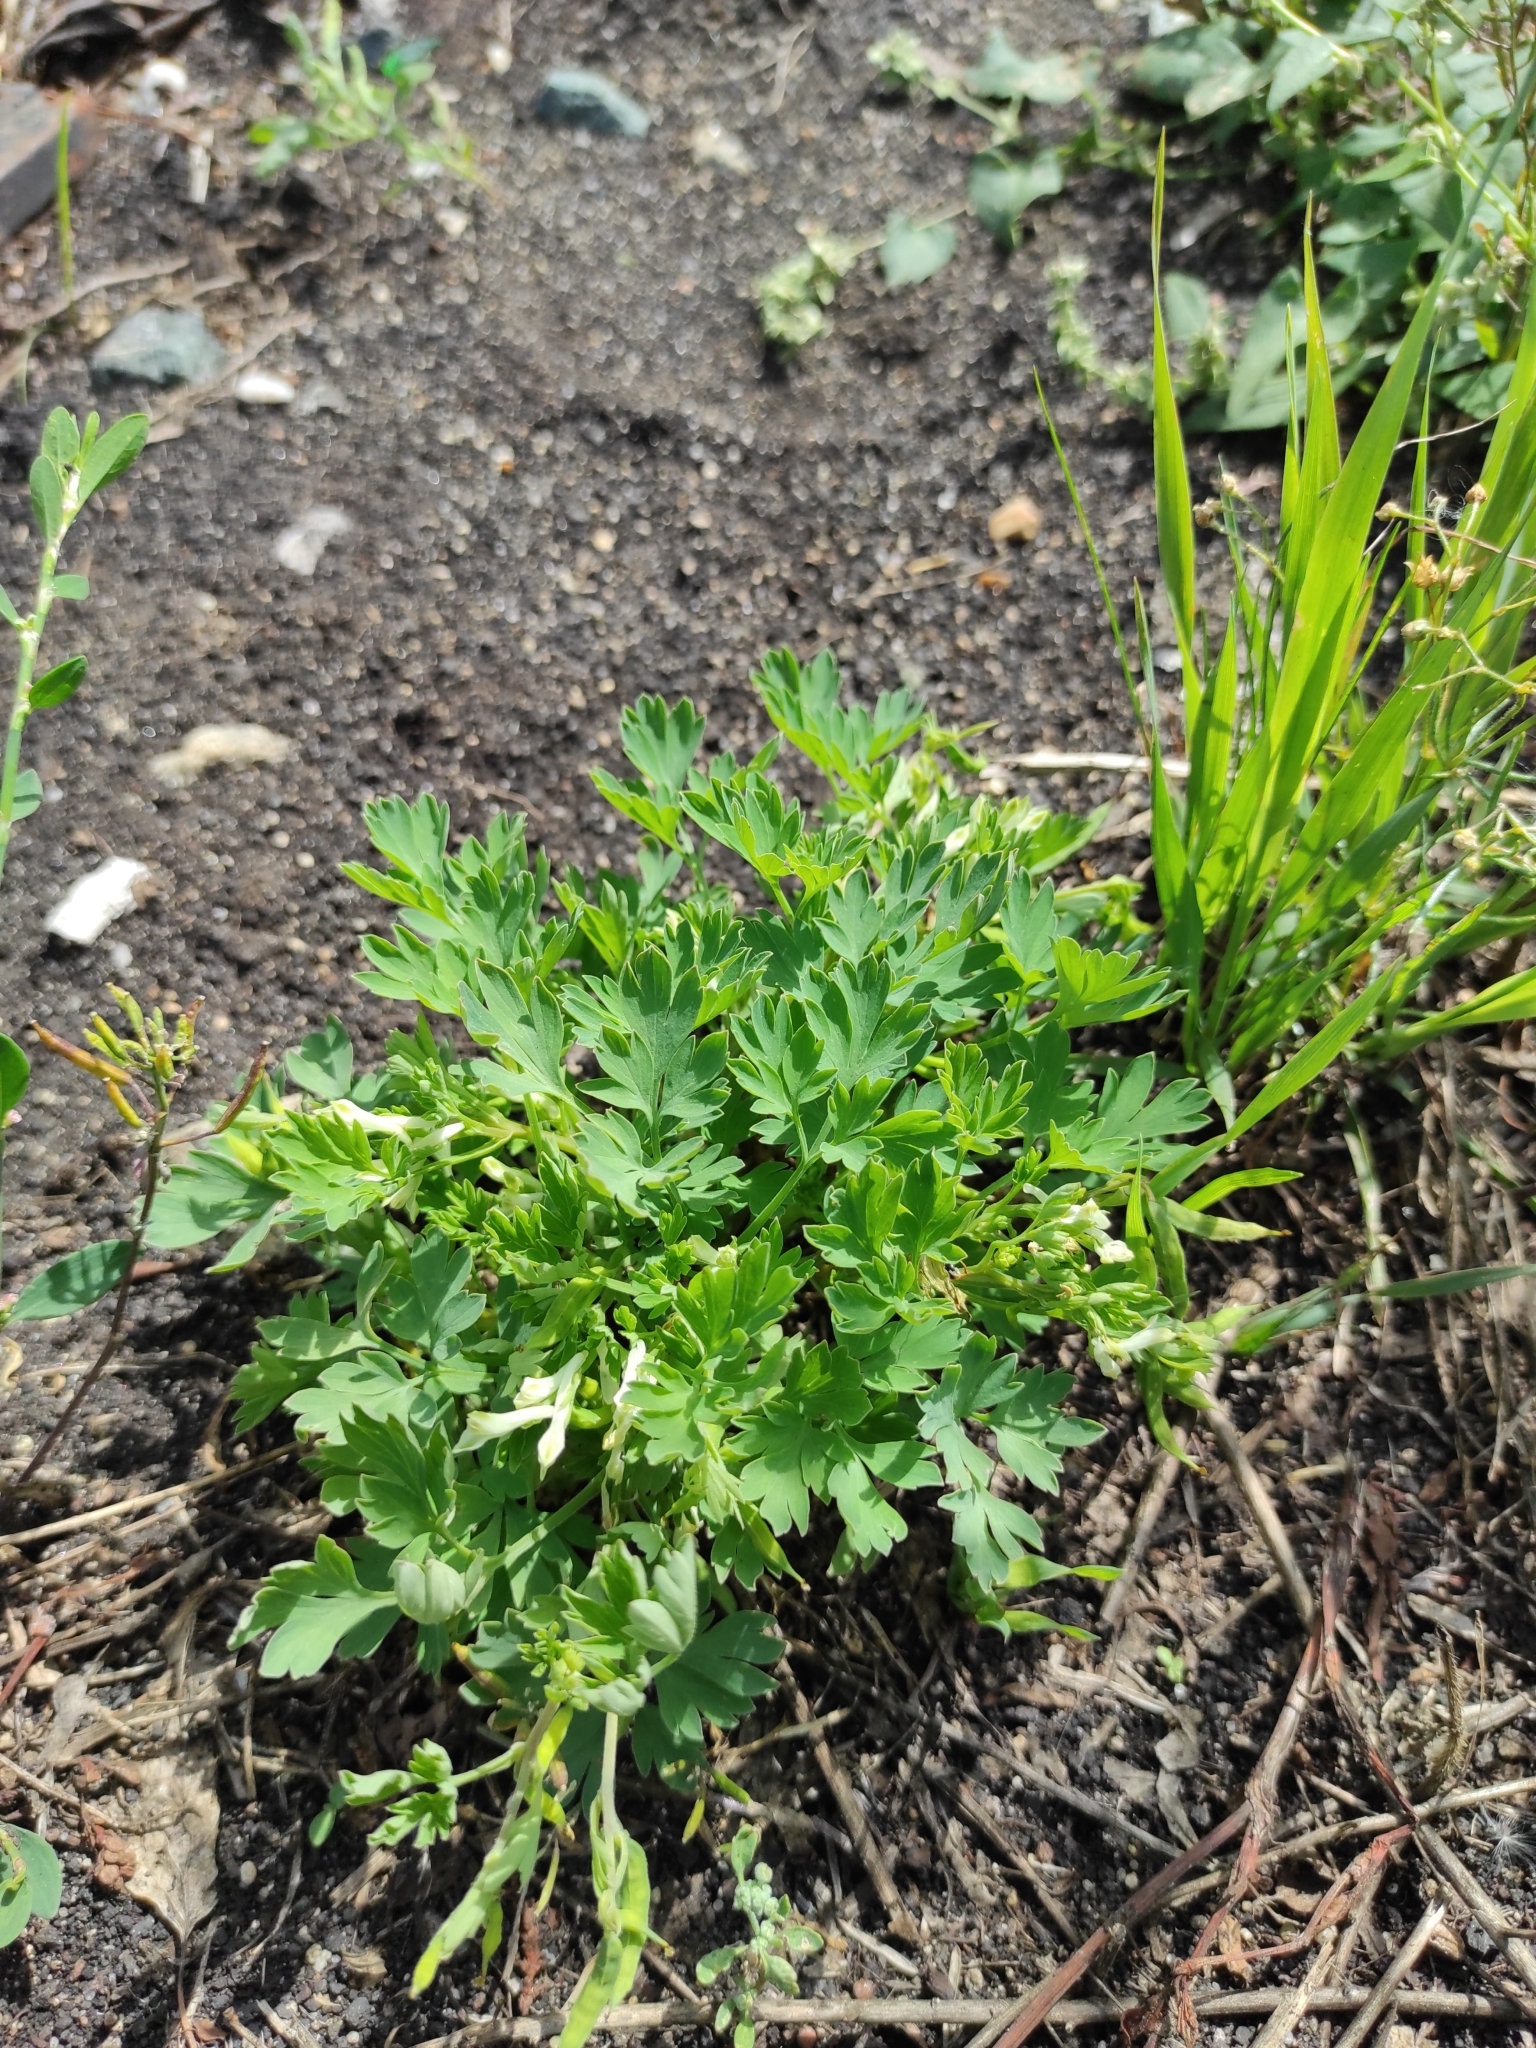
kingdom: Plantae
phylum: Tracheophyta
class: Magnoliopsida
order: Ranunculales
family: Papaveraceae
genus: Corydalis
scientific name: Corydalis capnoides
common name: Beaked corydalis
